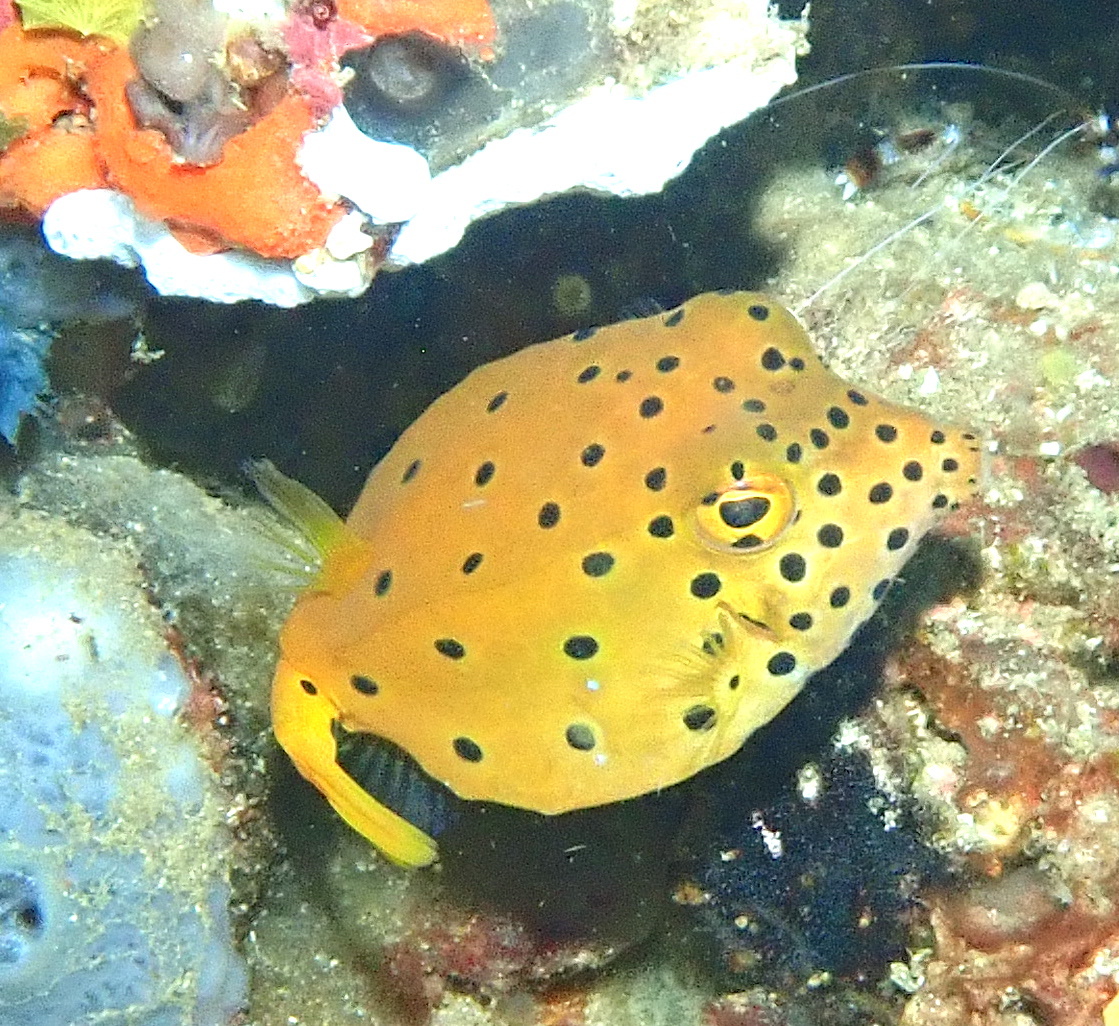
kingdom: Animalia
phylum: Chordata
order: Tetraodontiformes
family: Ostraciidae
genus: Ostracion
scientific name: Ostracion cubicus
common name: Cube trunkfish
